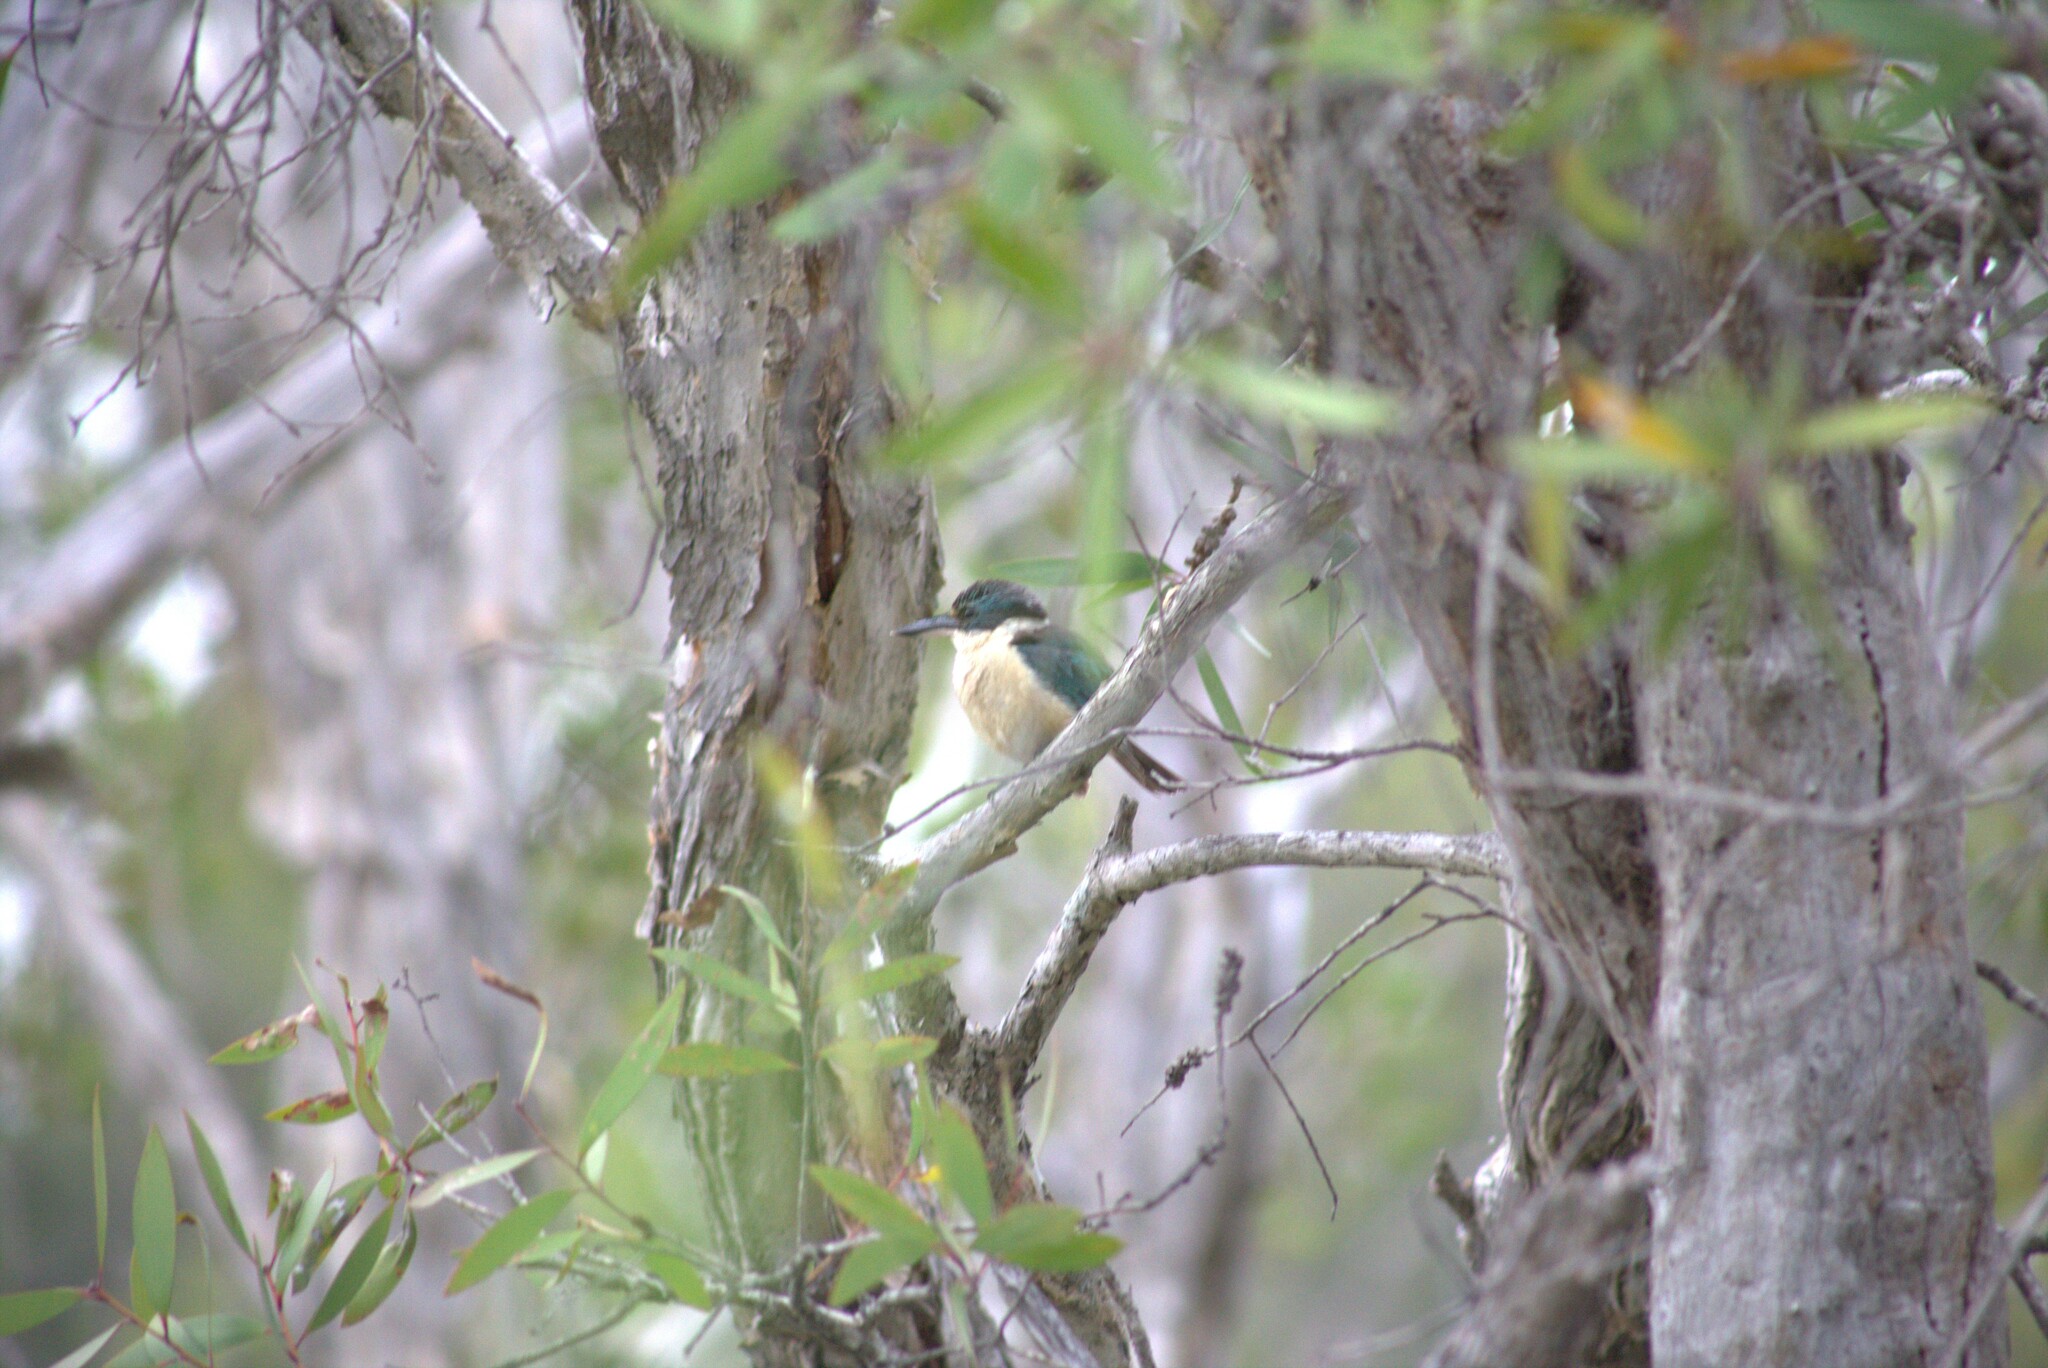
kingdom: Animalia
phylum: Chordata
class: Aves
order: Coraciiformes
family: Alcedinidae
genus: Todiramphus
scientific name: Todiramphus sanctus
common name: Sacred kingfisher
